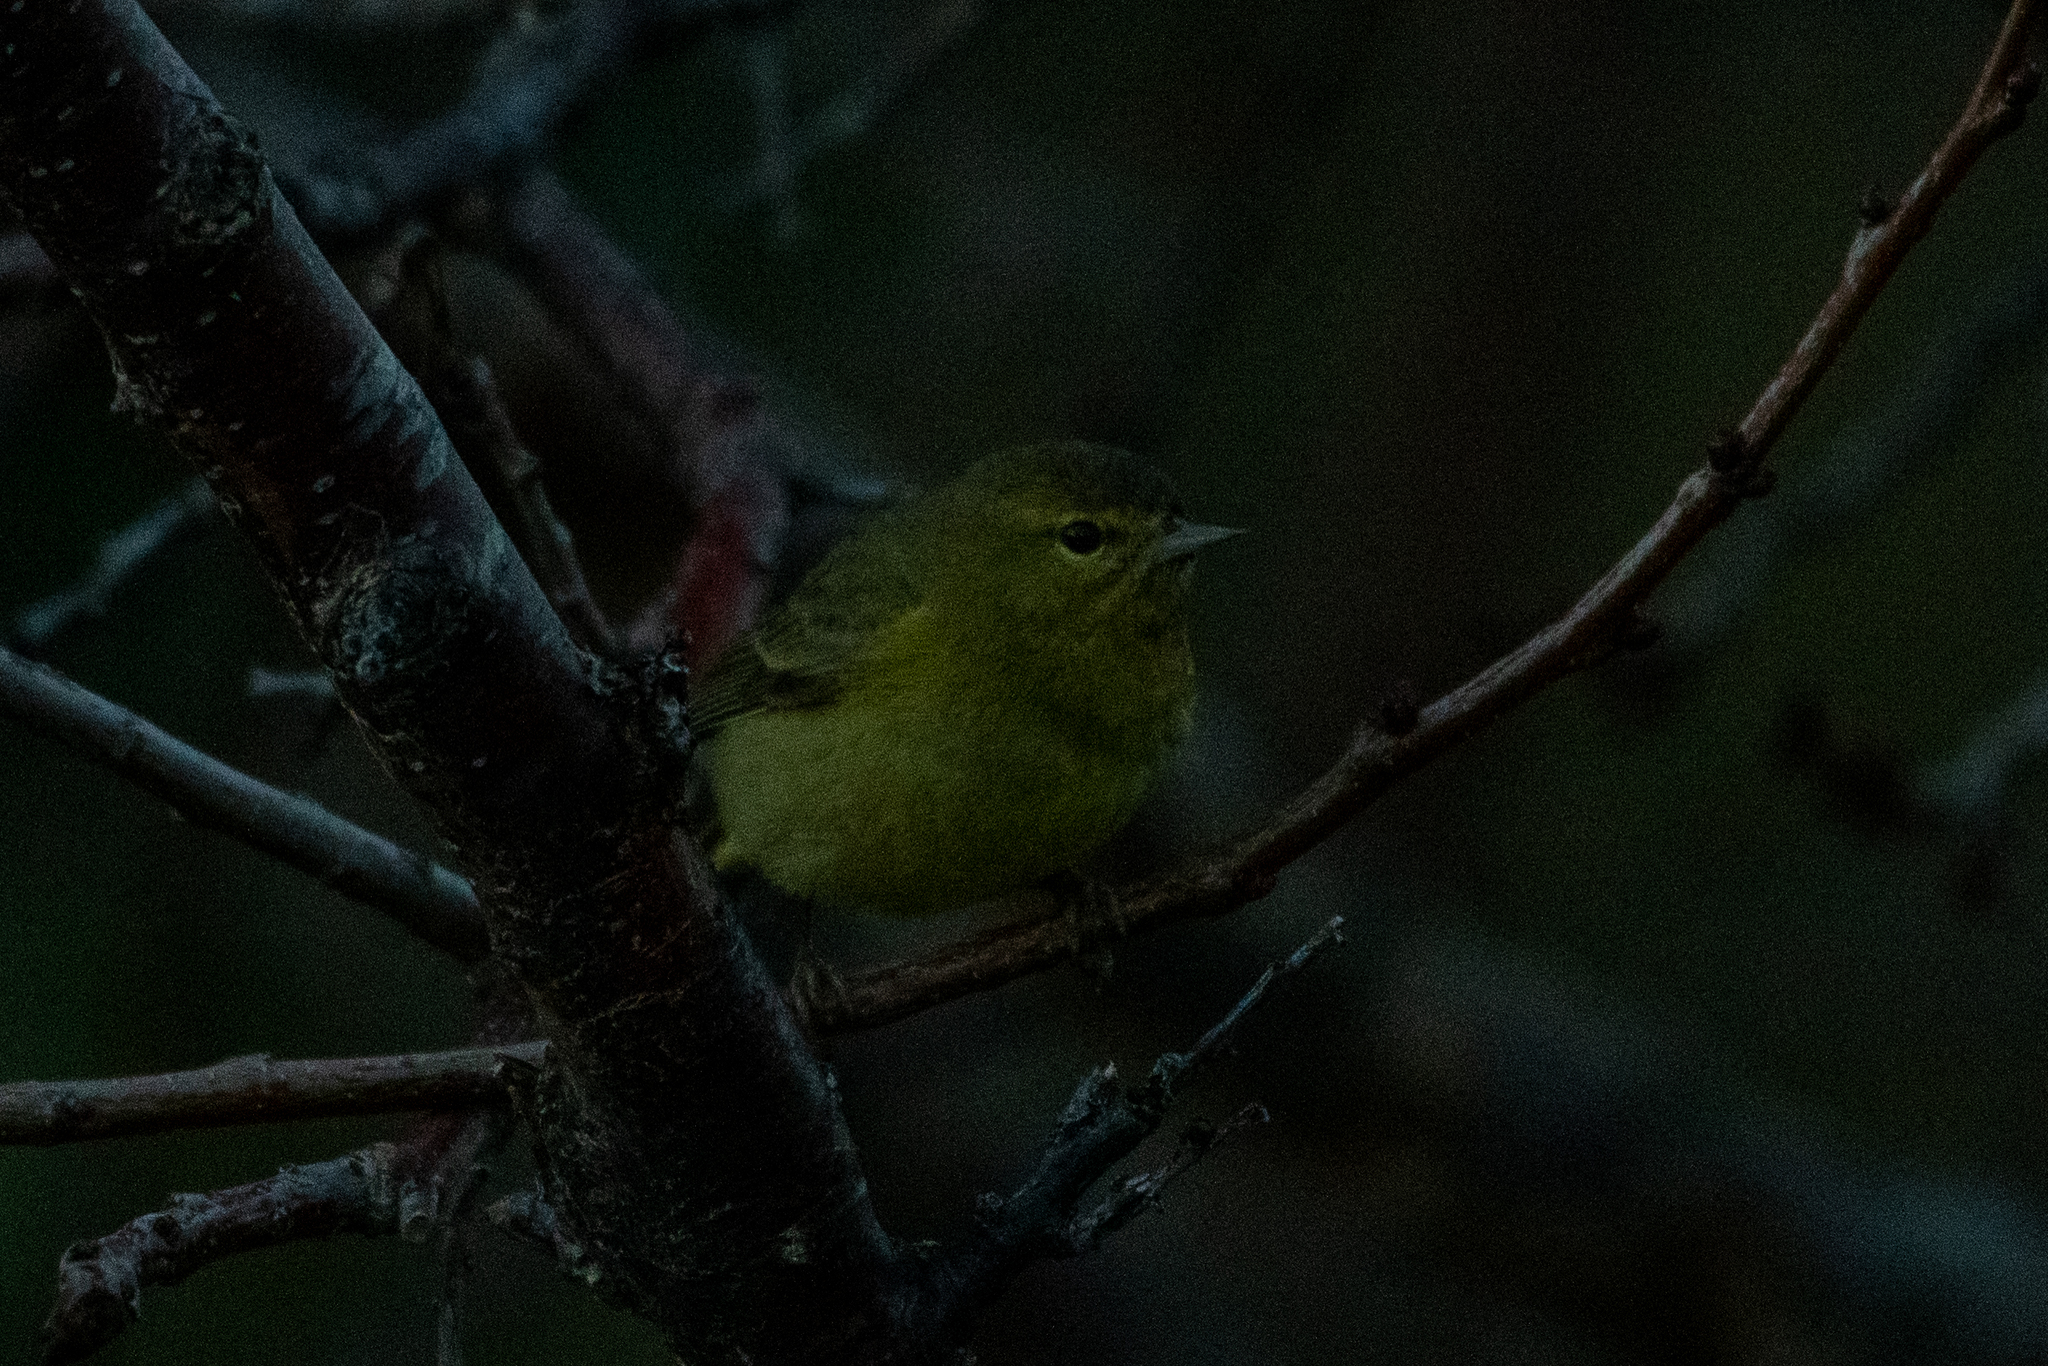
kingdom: Animalia
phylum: Chordata
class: Aves
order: Passeriformes
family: Parulidae
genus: Leiothlypis
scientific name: Leiothlypis celata
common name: Orange-crowned warbler
